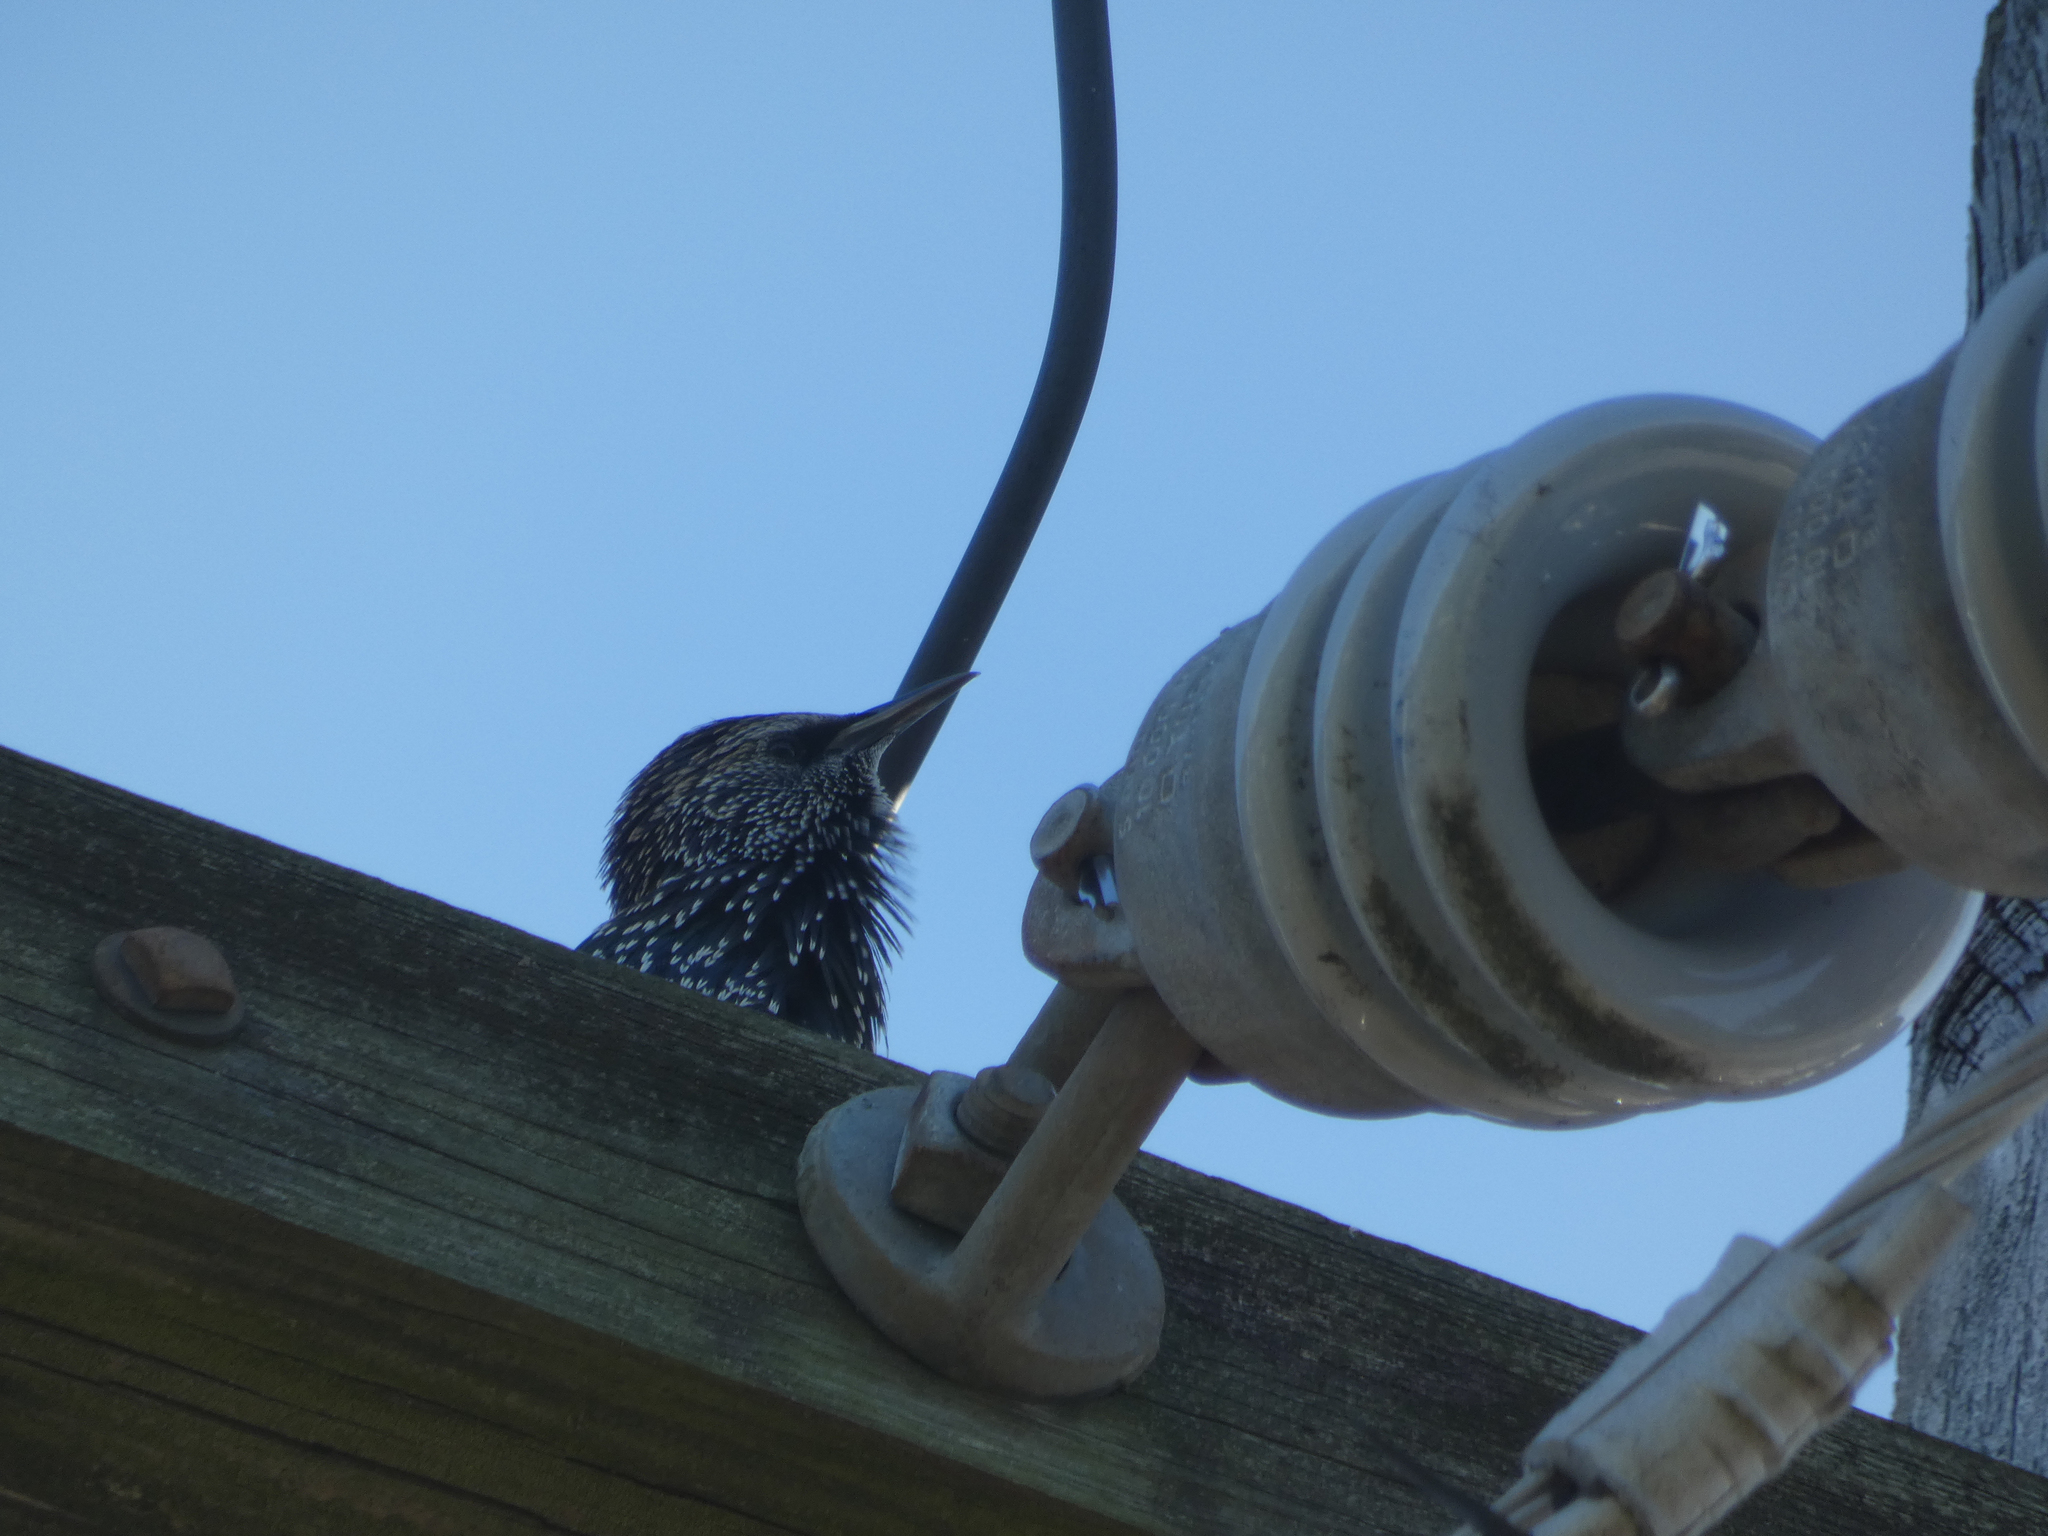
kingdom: Animalia
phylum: Chordata
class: Aves
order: Passeriformes
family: Sturnidae
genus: Sturnus
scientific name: Sturnus vulgaris
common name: Common starling
